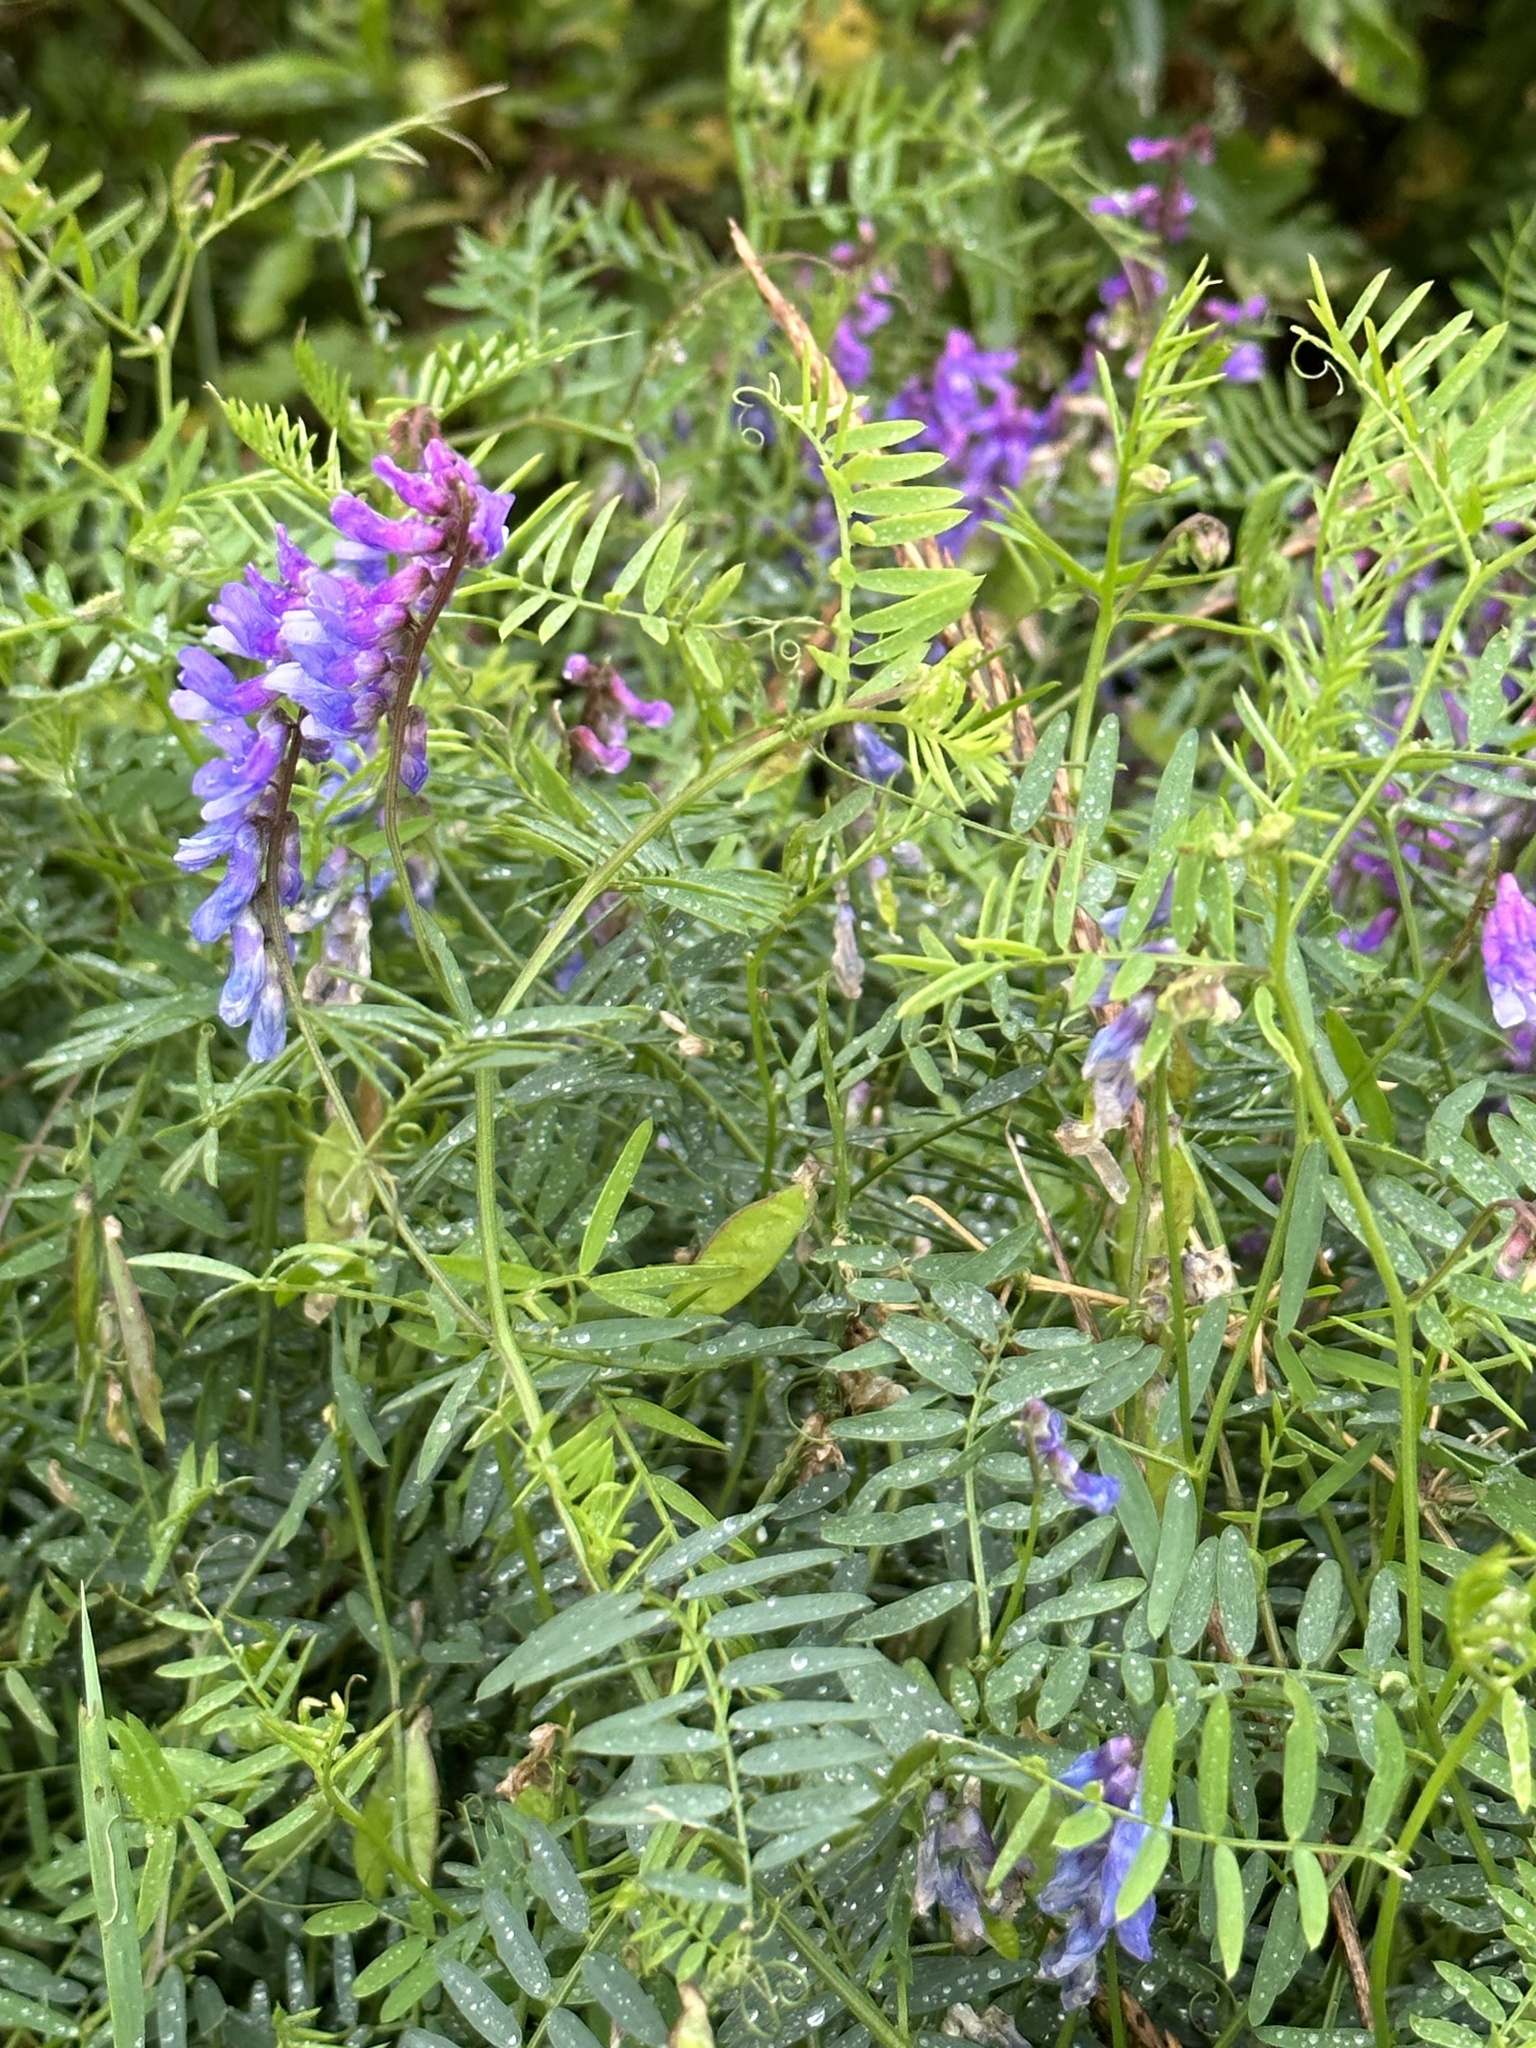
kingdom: Plantae
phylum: Tracheophyta
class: Magnoliopsida
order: Fabales
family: Fabaceae
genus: Vicia
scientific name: Vicia cracca
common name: Bird vetch
